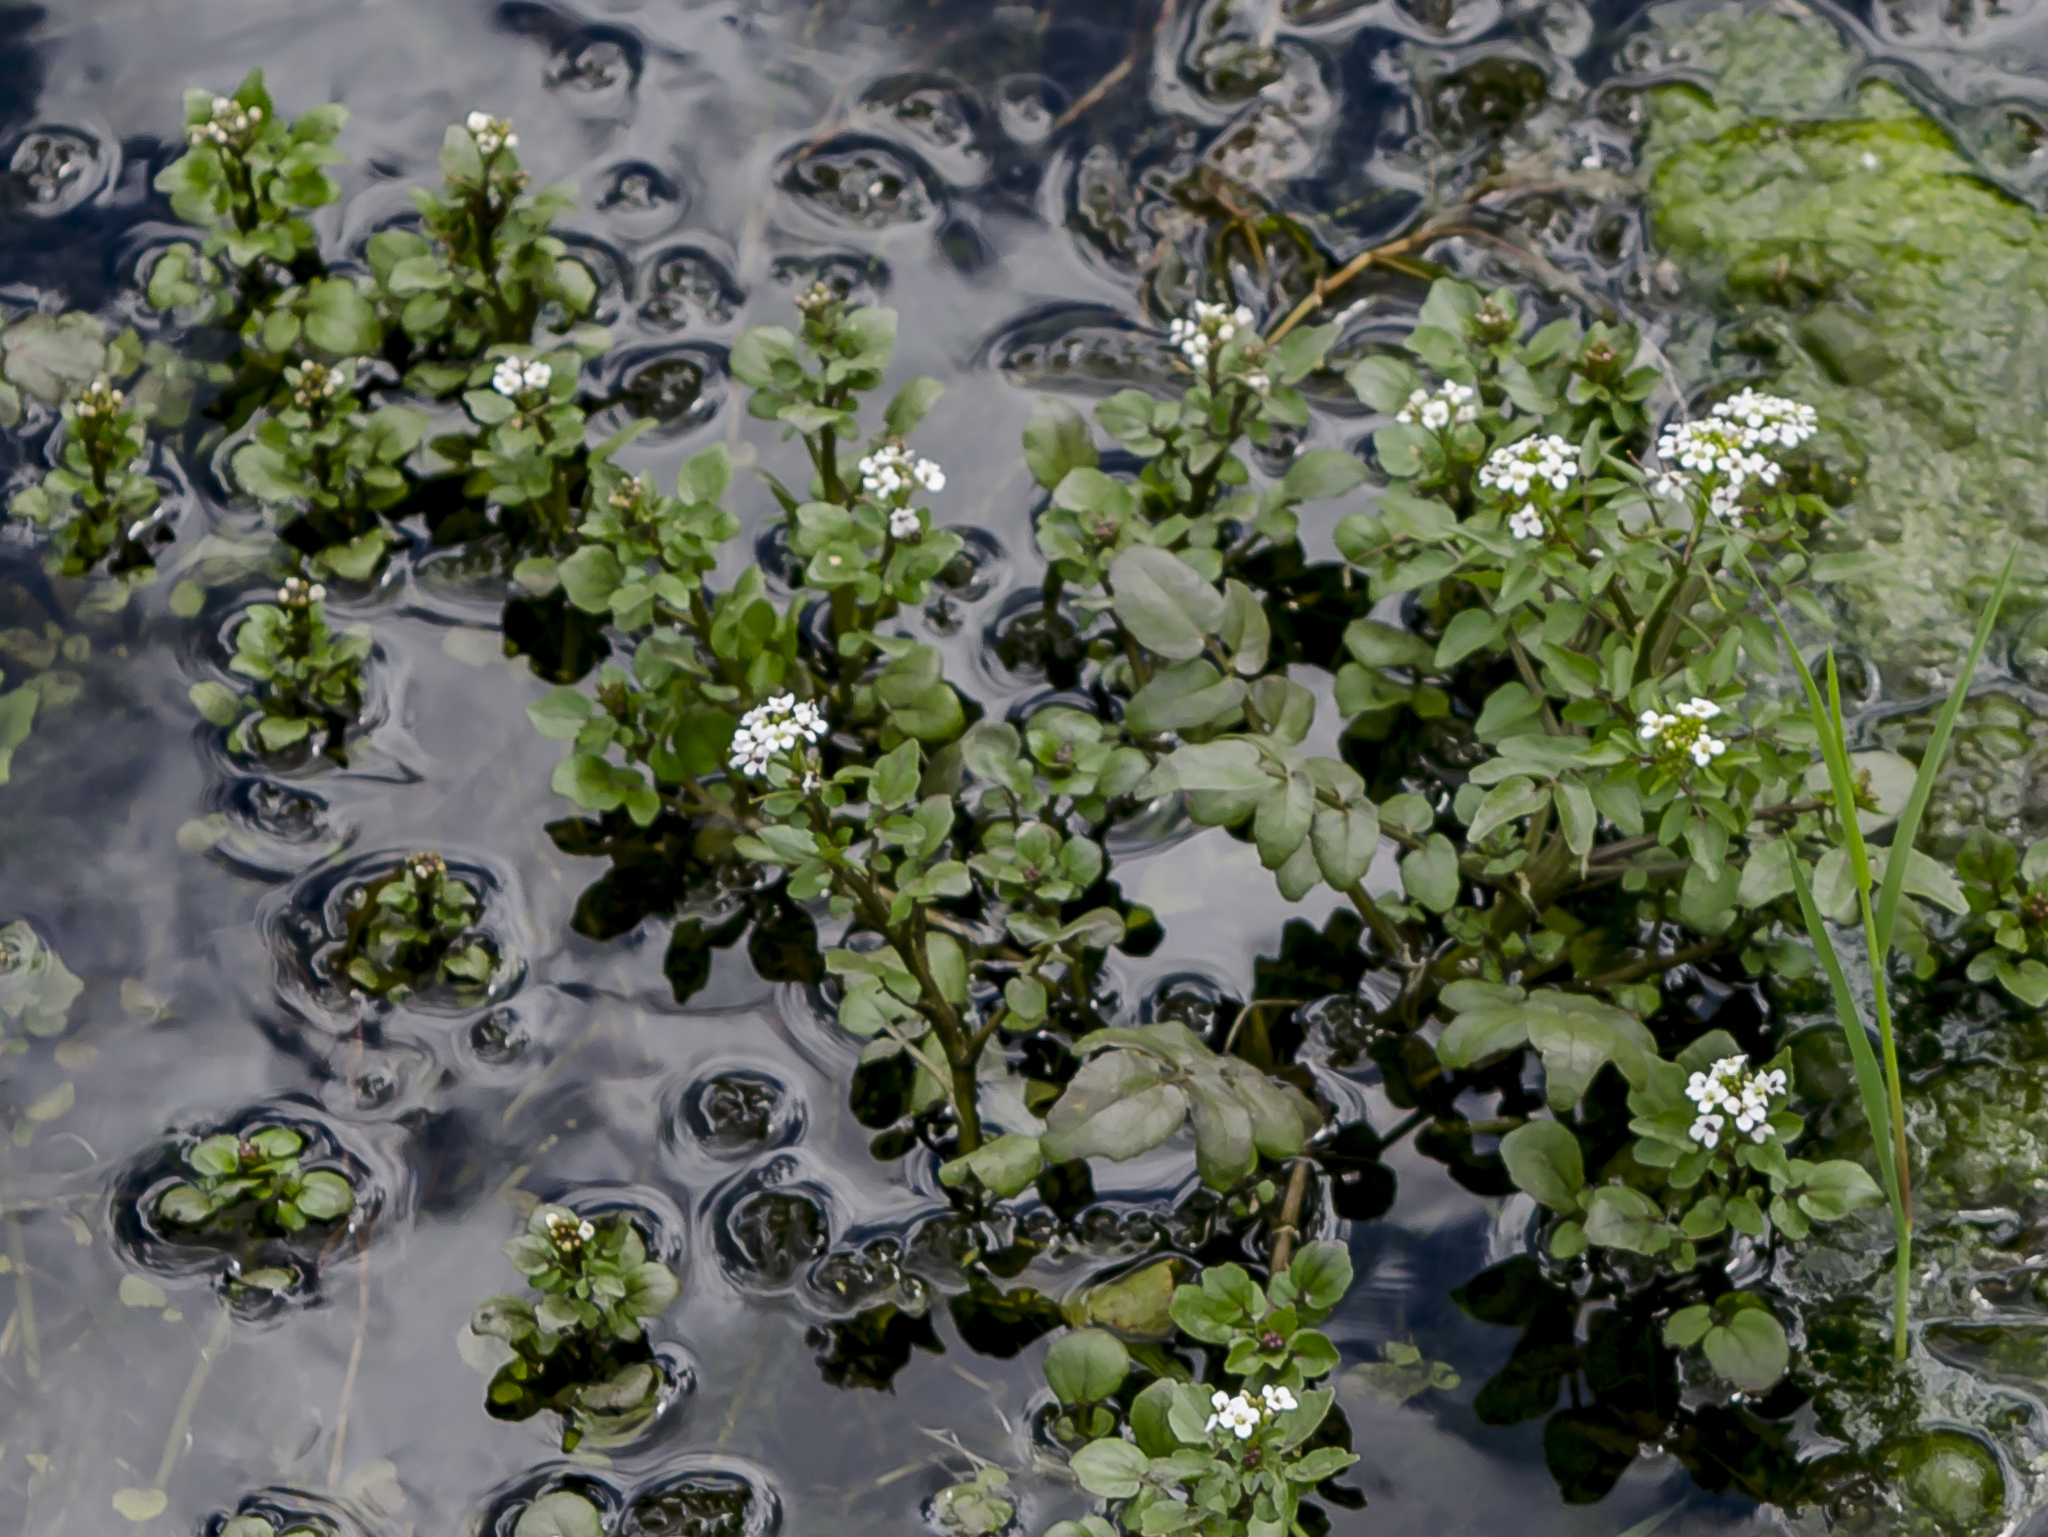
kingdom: Plantae
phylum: Tracheophyta
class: Magnoliopsida
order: Brassicales
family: Brassicaceae
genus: Nasturtium
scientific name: Nasturtium officinale
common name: Watercress
